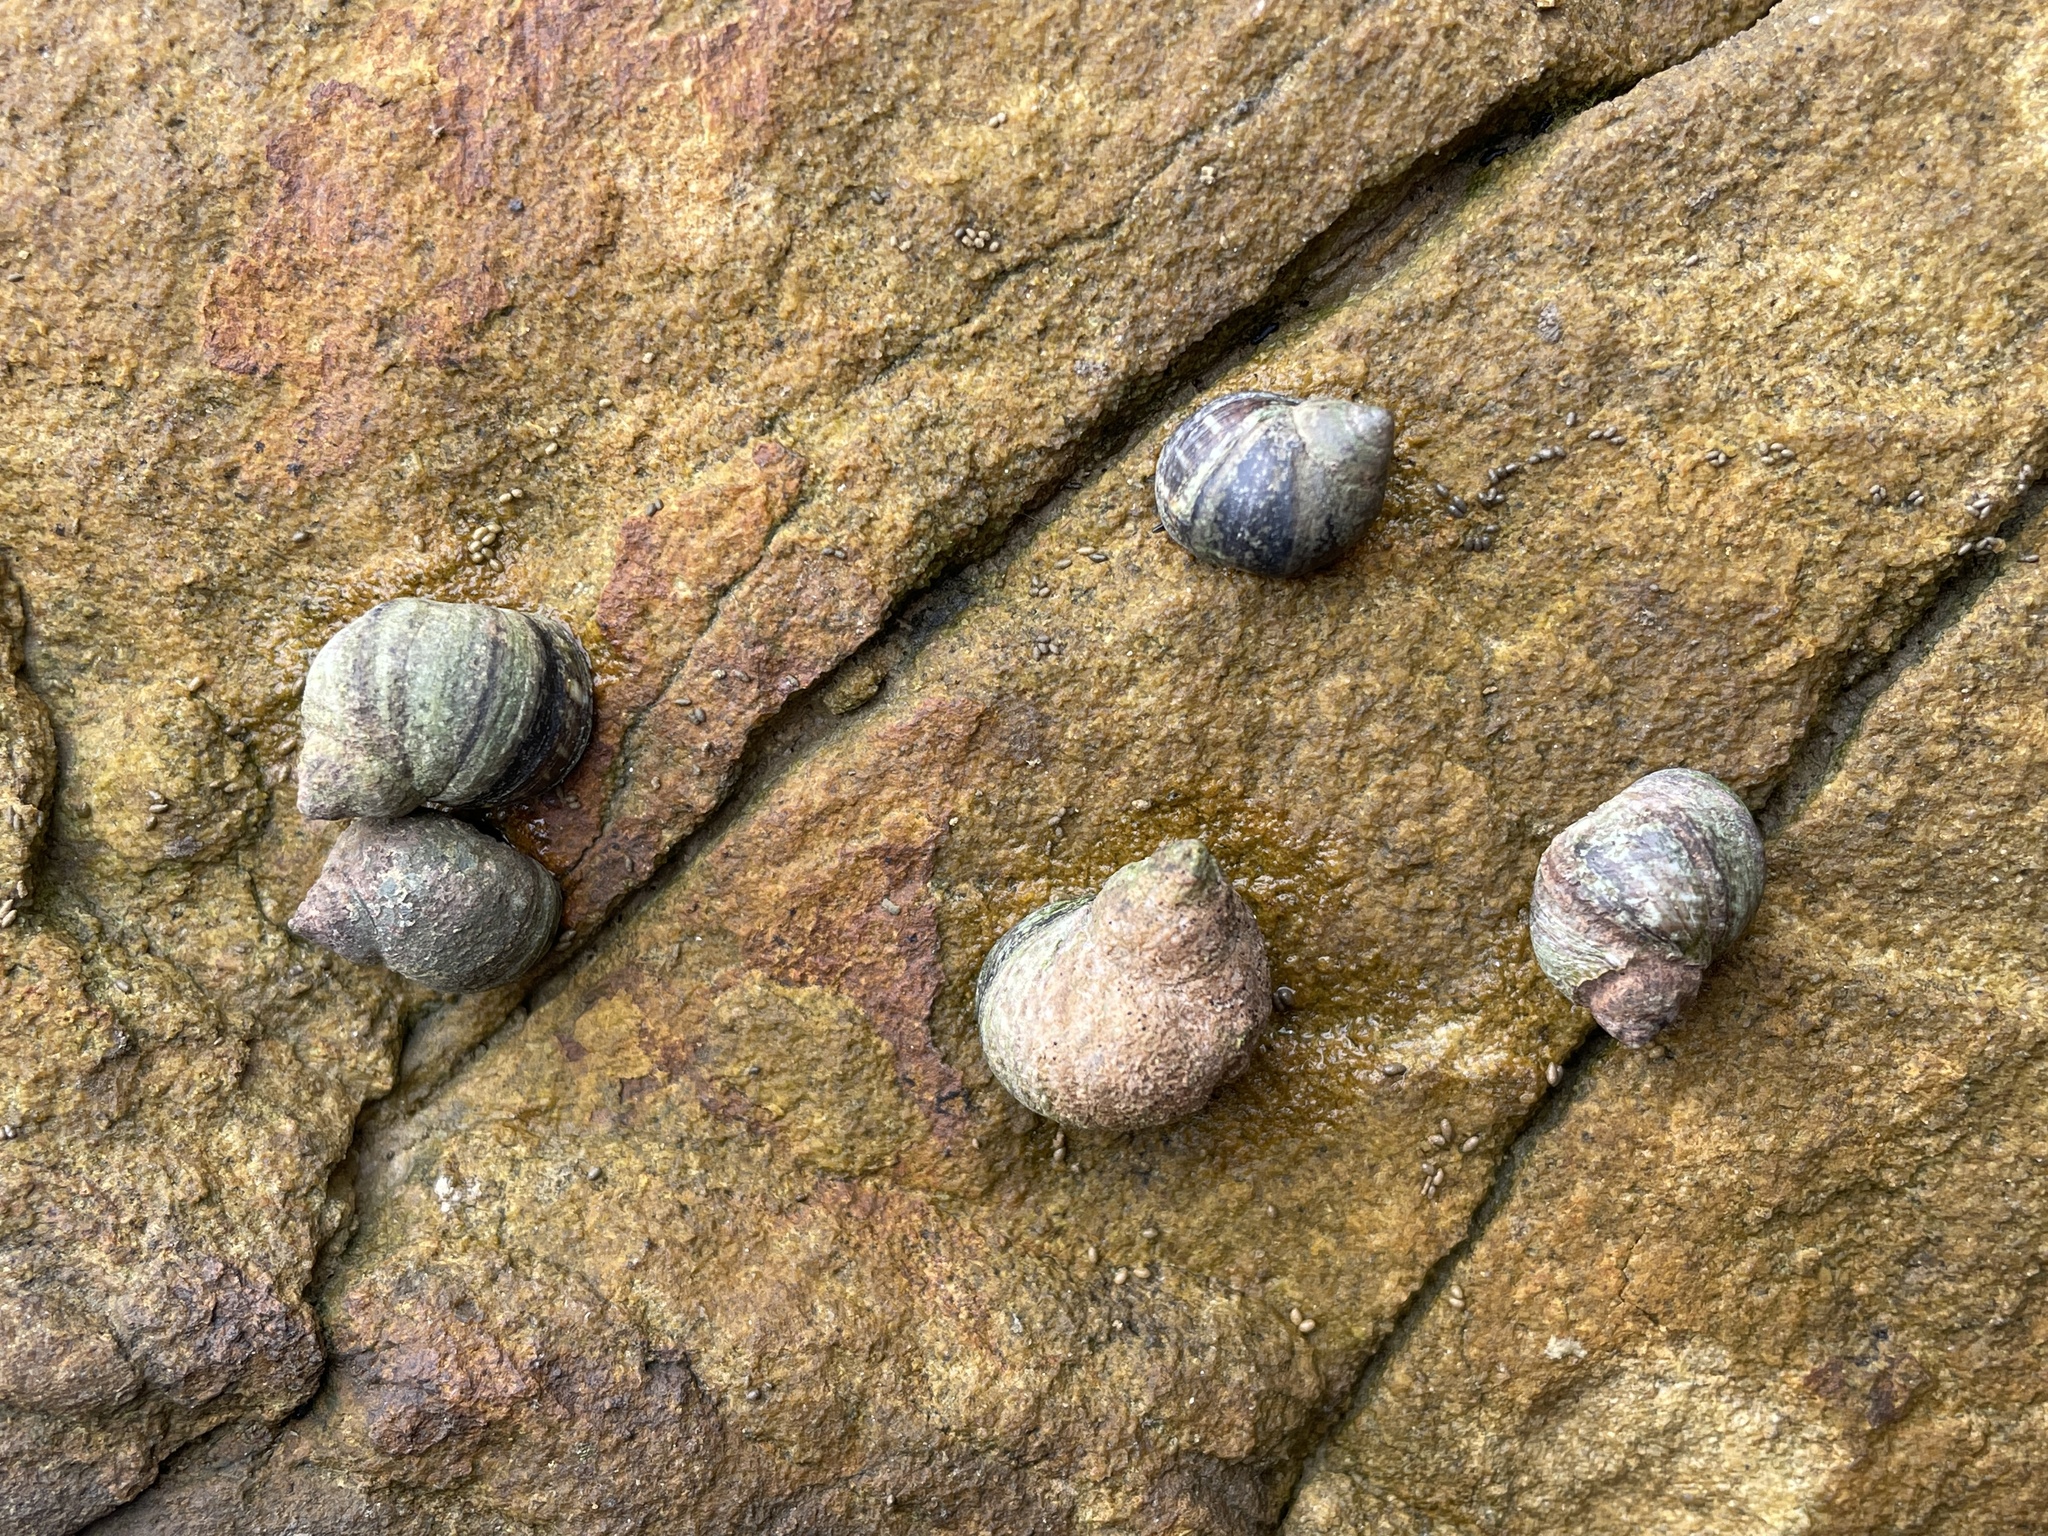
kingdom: Animalia
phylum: Mollusca
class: Gastropoda
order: Littorinimorpha
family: Littorinidae
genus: Littorina
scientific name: Littorina keenae
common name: Eroded periwinkle
